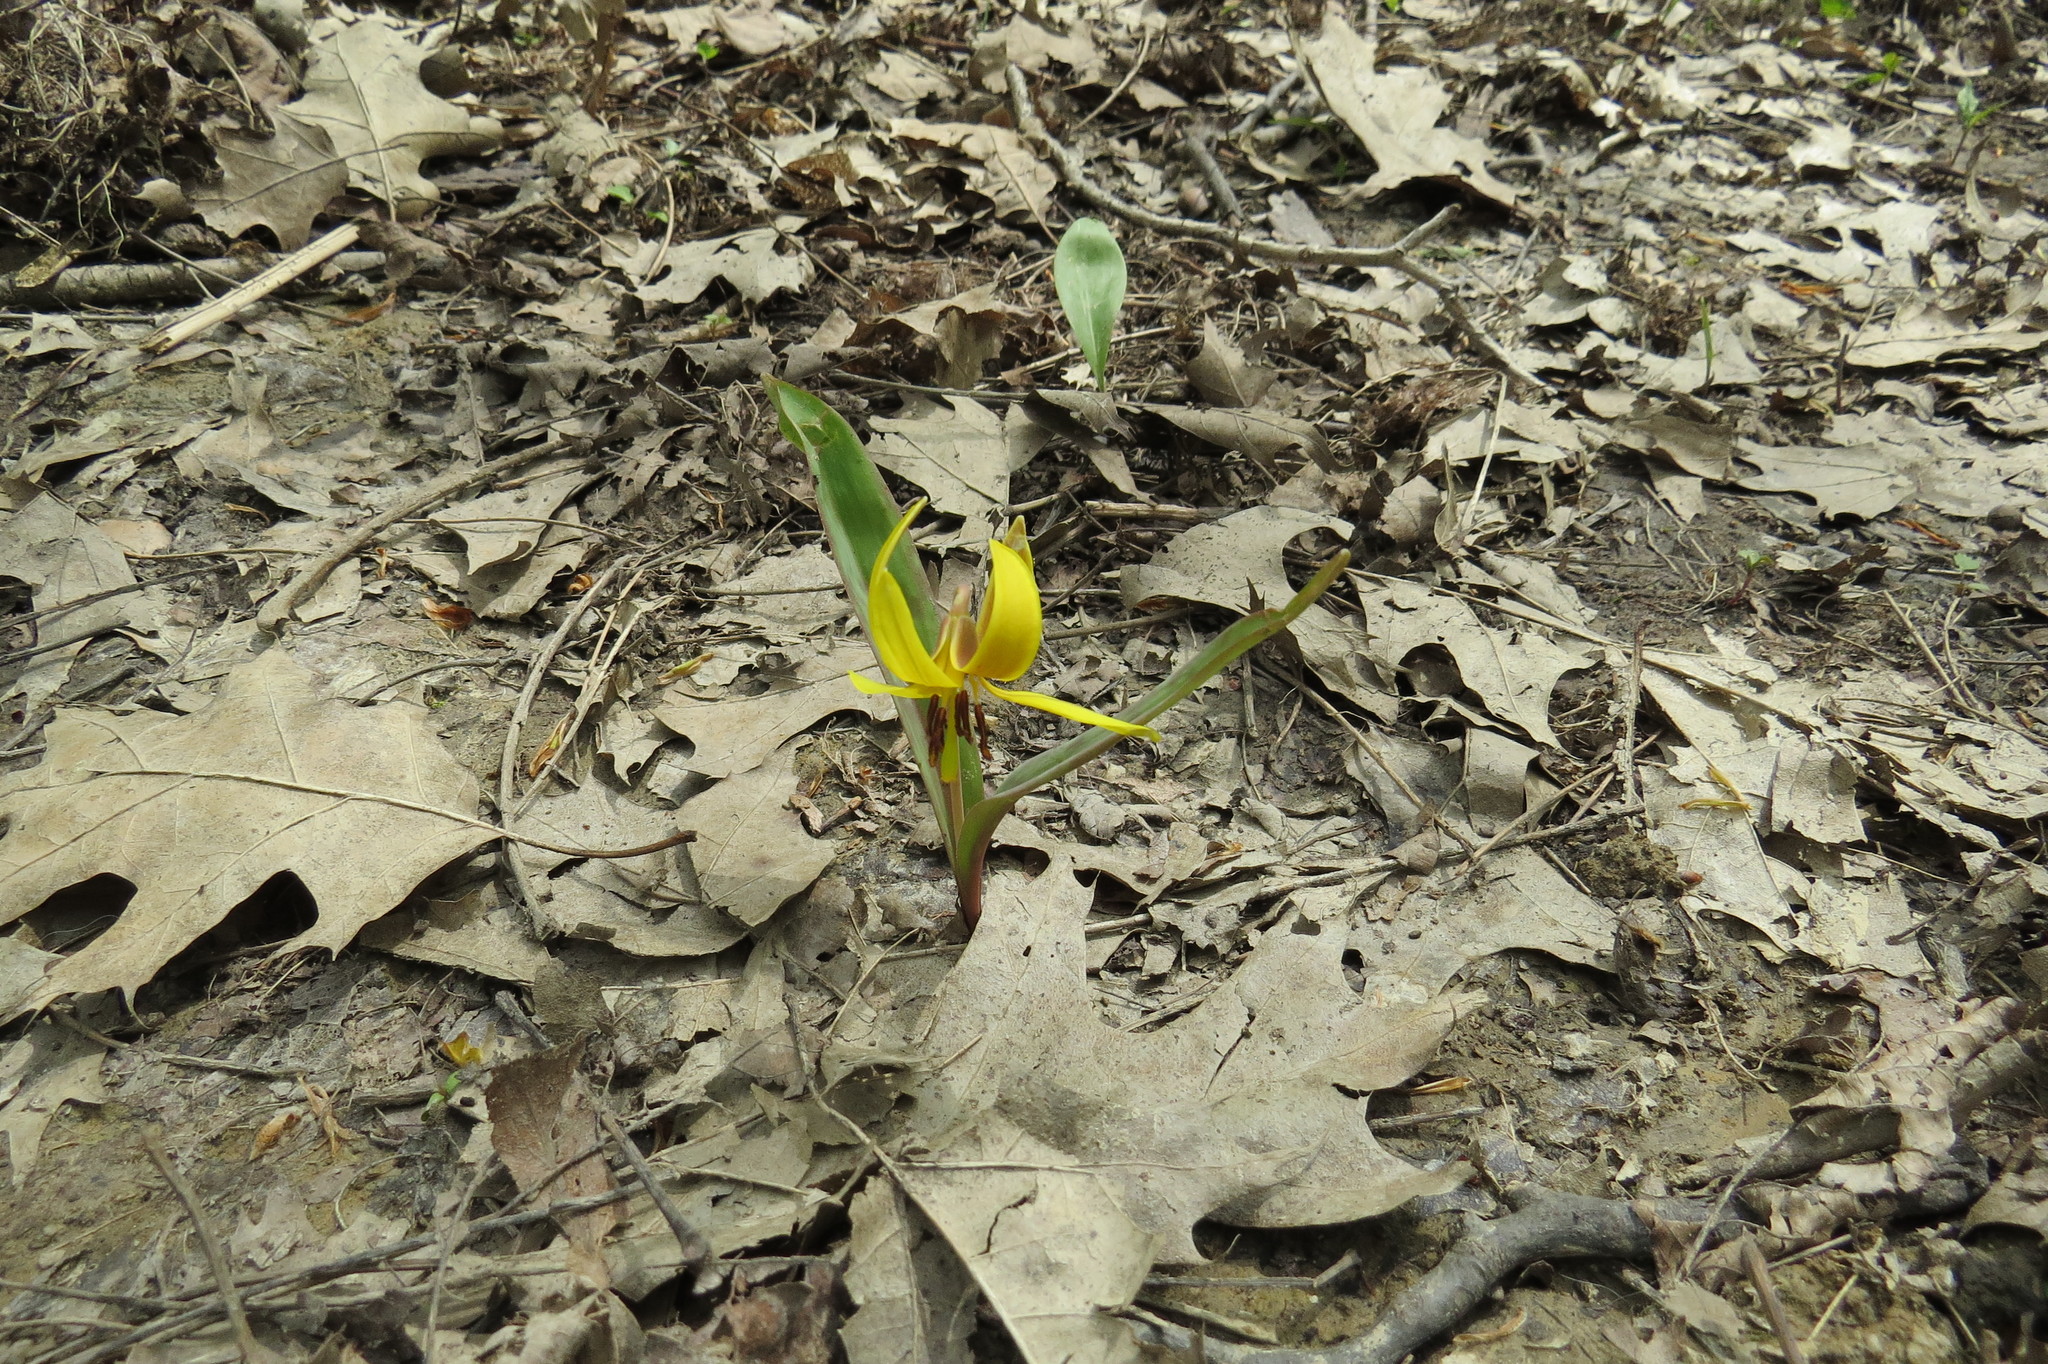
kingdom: Plantae
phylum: Tracheophyta
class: Liliopsida
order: Liliales
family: Liliaceae
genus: Erythronium
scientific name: Erythronium americanum
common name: Yellow adder's-tongue
